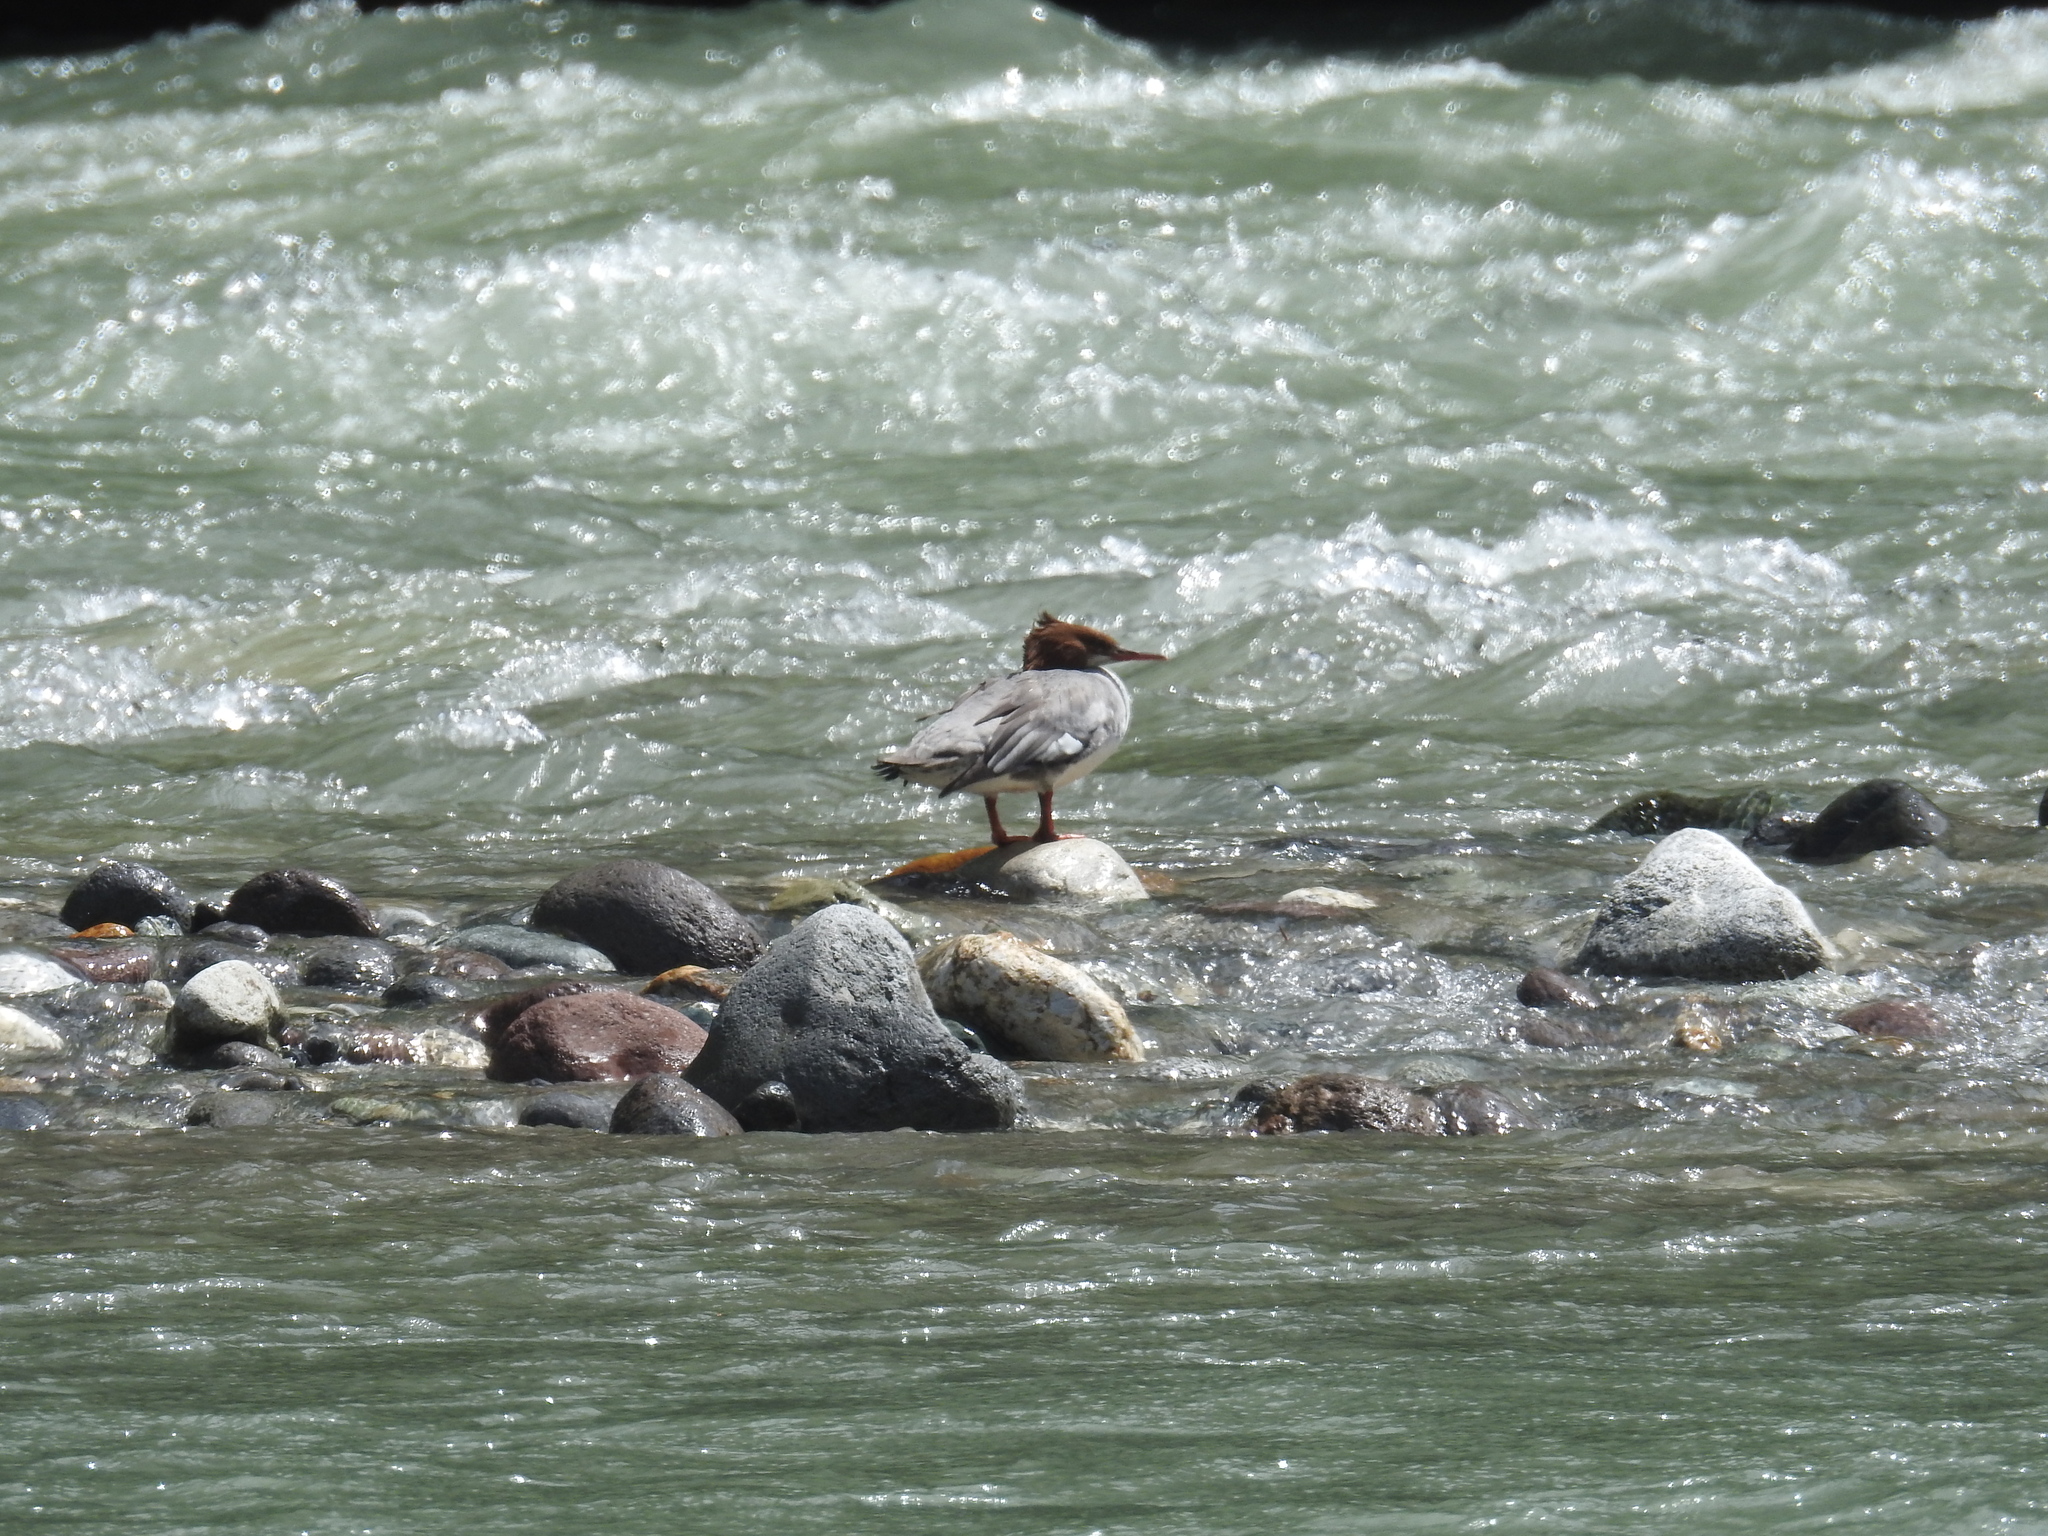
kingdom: Animalia
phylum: Chordata
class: Aves
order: Anseriformes
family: Anatidae
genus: Mergus
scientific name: Mergus merganser
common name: Common merganser
